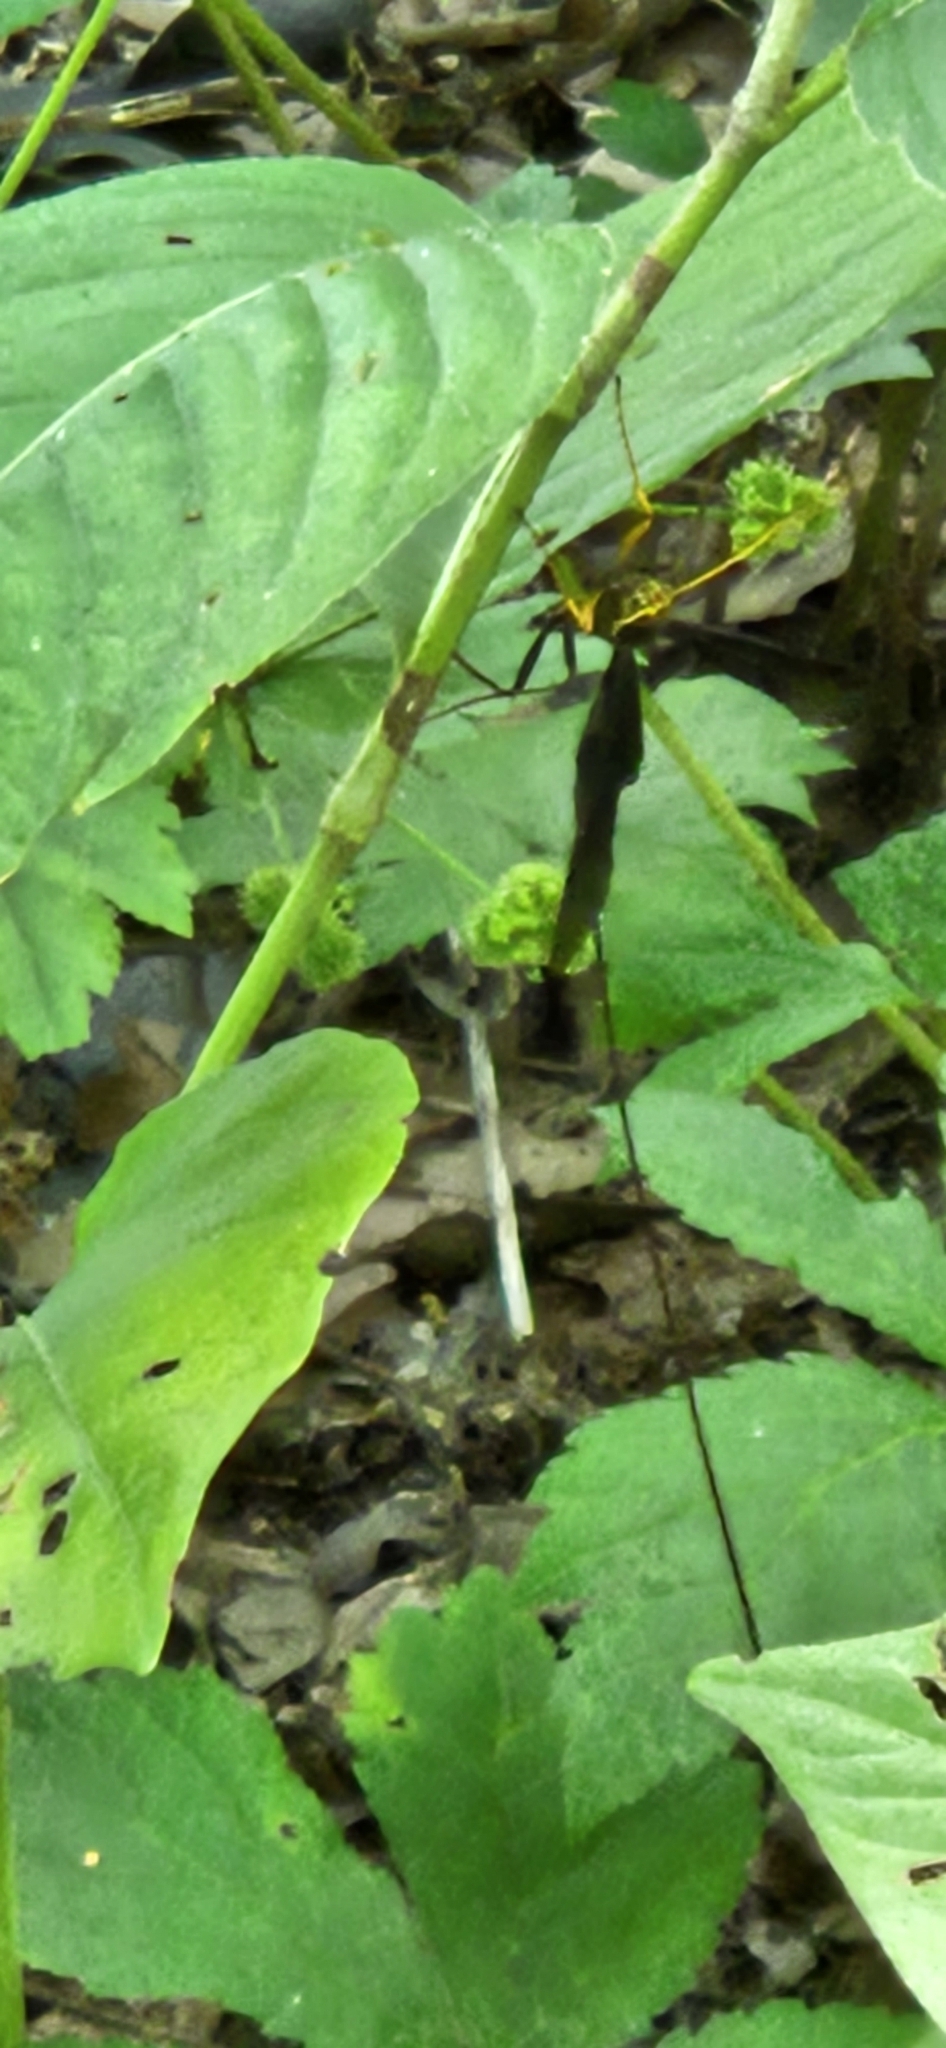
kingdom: Animalia
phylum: Arthropoda
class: Insecta
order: Hymenoptera
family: Ichneumonidae
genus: Megarhyssa
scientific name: Megarhyssa atrata
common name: Black giant ichneumonid wasp
